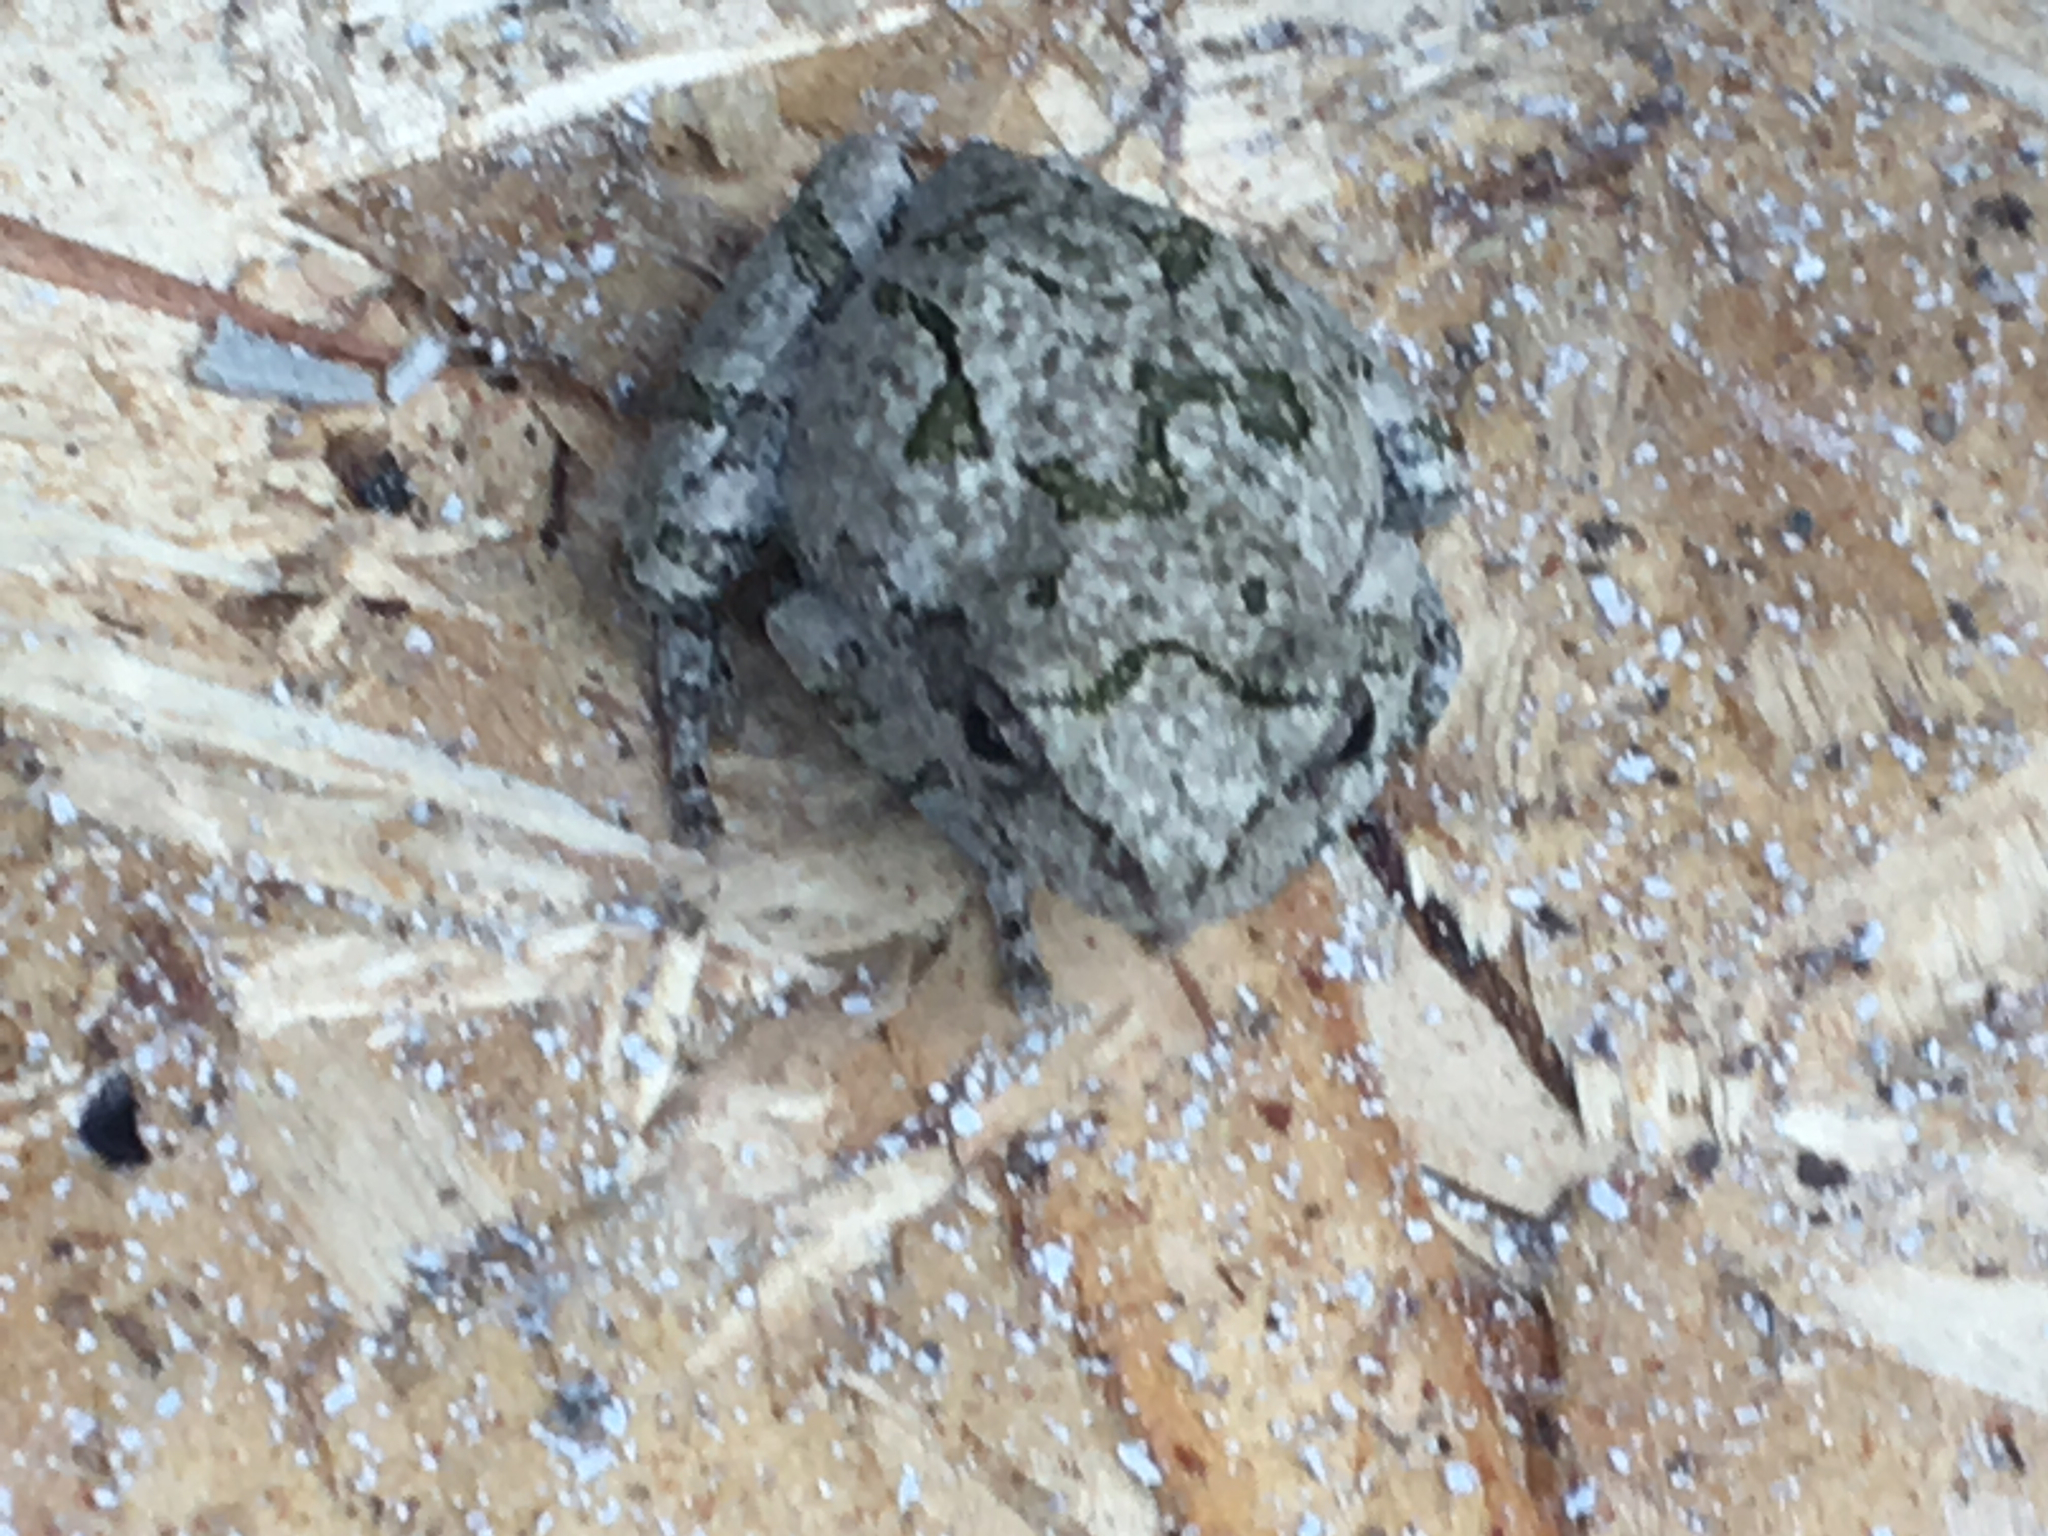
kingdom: Animalia
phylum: Chordata
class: Amphibia
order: Anura
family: Hylidae
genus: Dryophytes
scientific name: Dryophytes chrysoscelis
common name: Cope's gray treefrog
